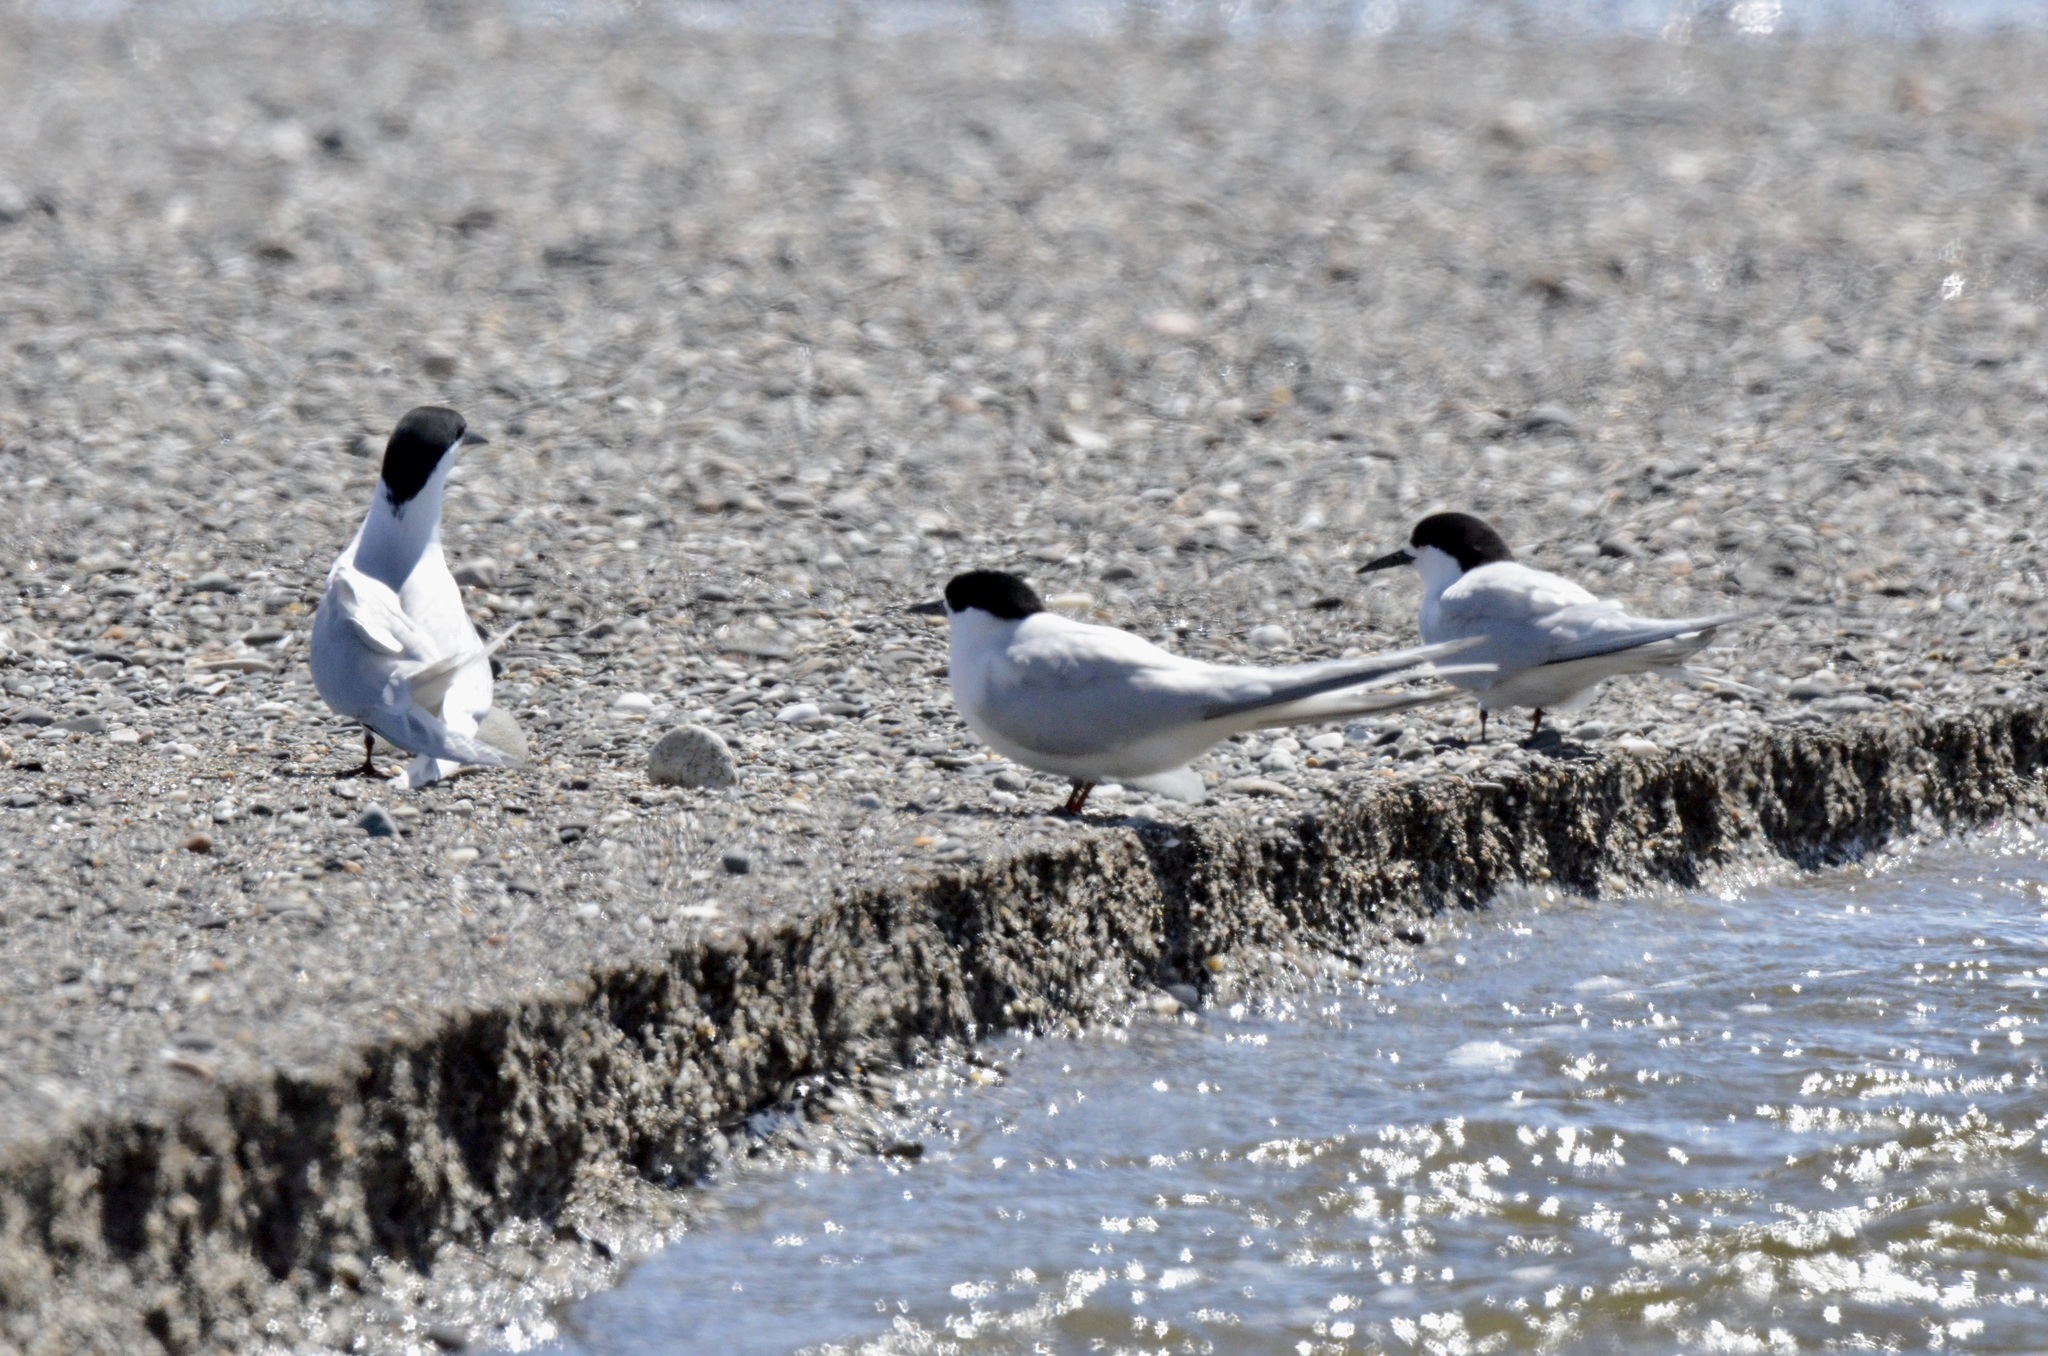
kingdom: Animalia
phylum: Chordata
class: Aves
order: Charadriiformes
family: Laridae
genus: Sterna
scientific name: Sterna striata
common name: White-fronted tern
